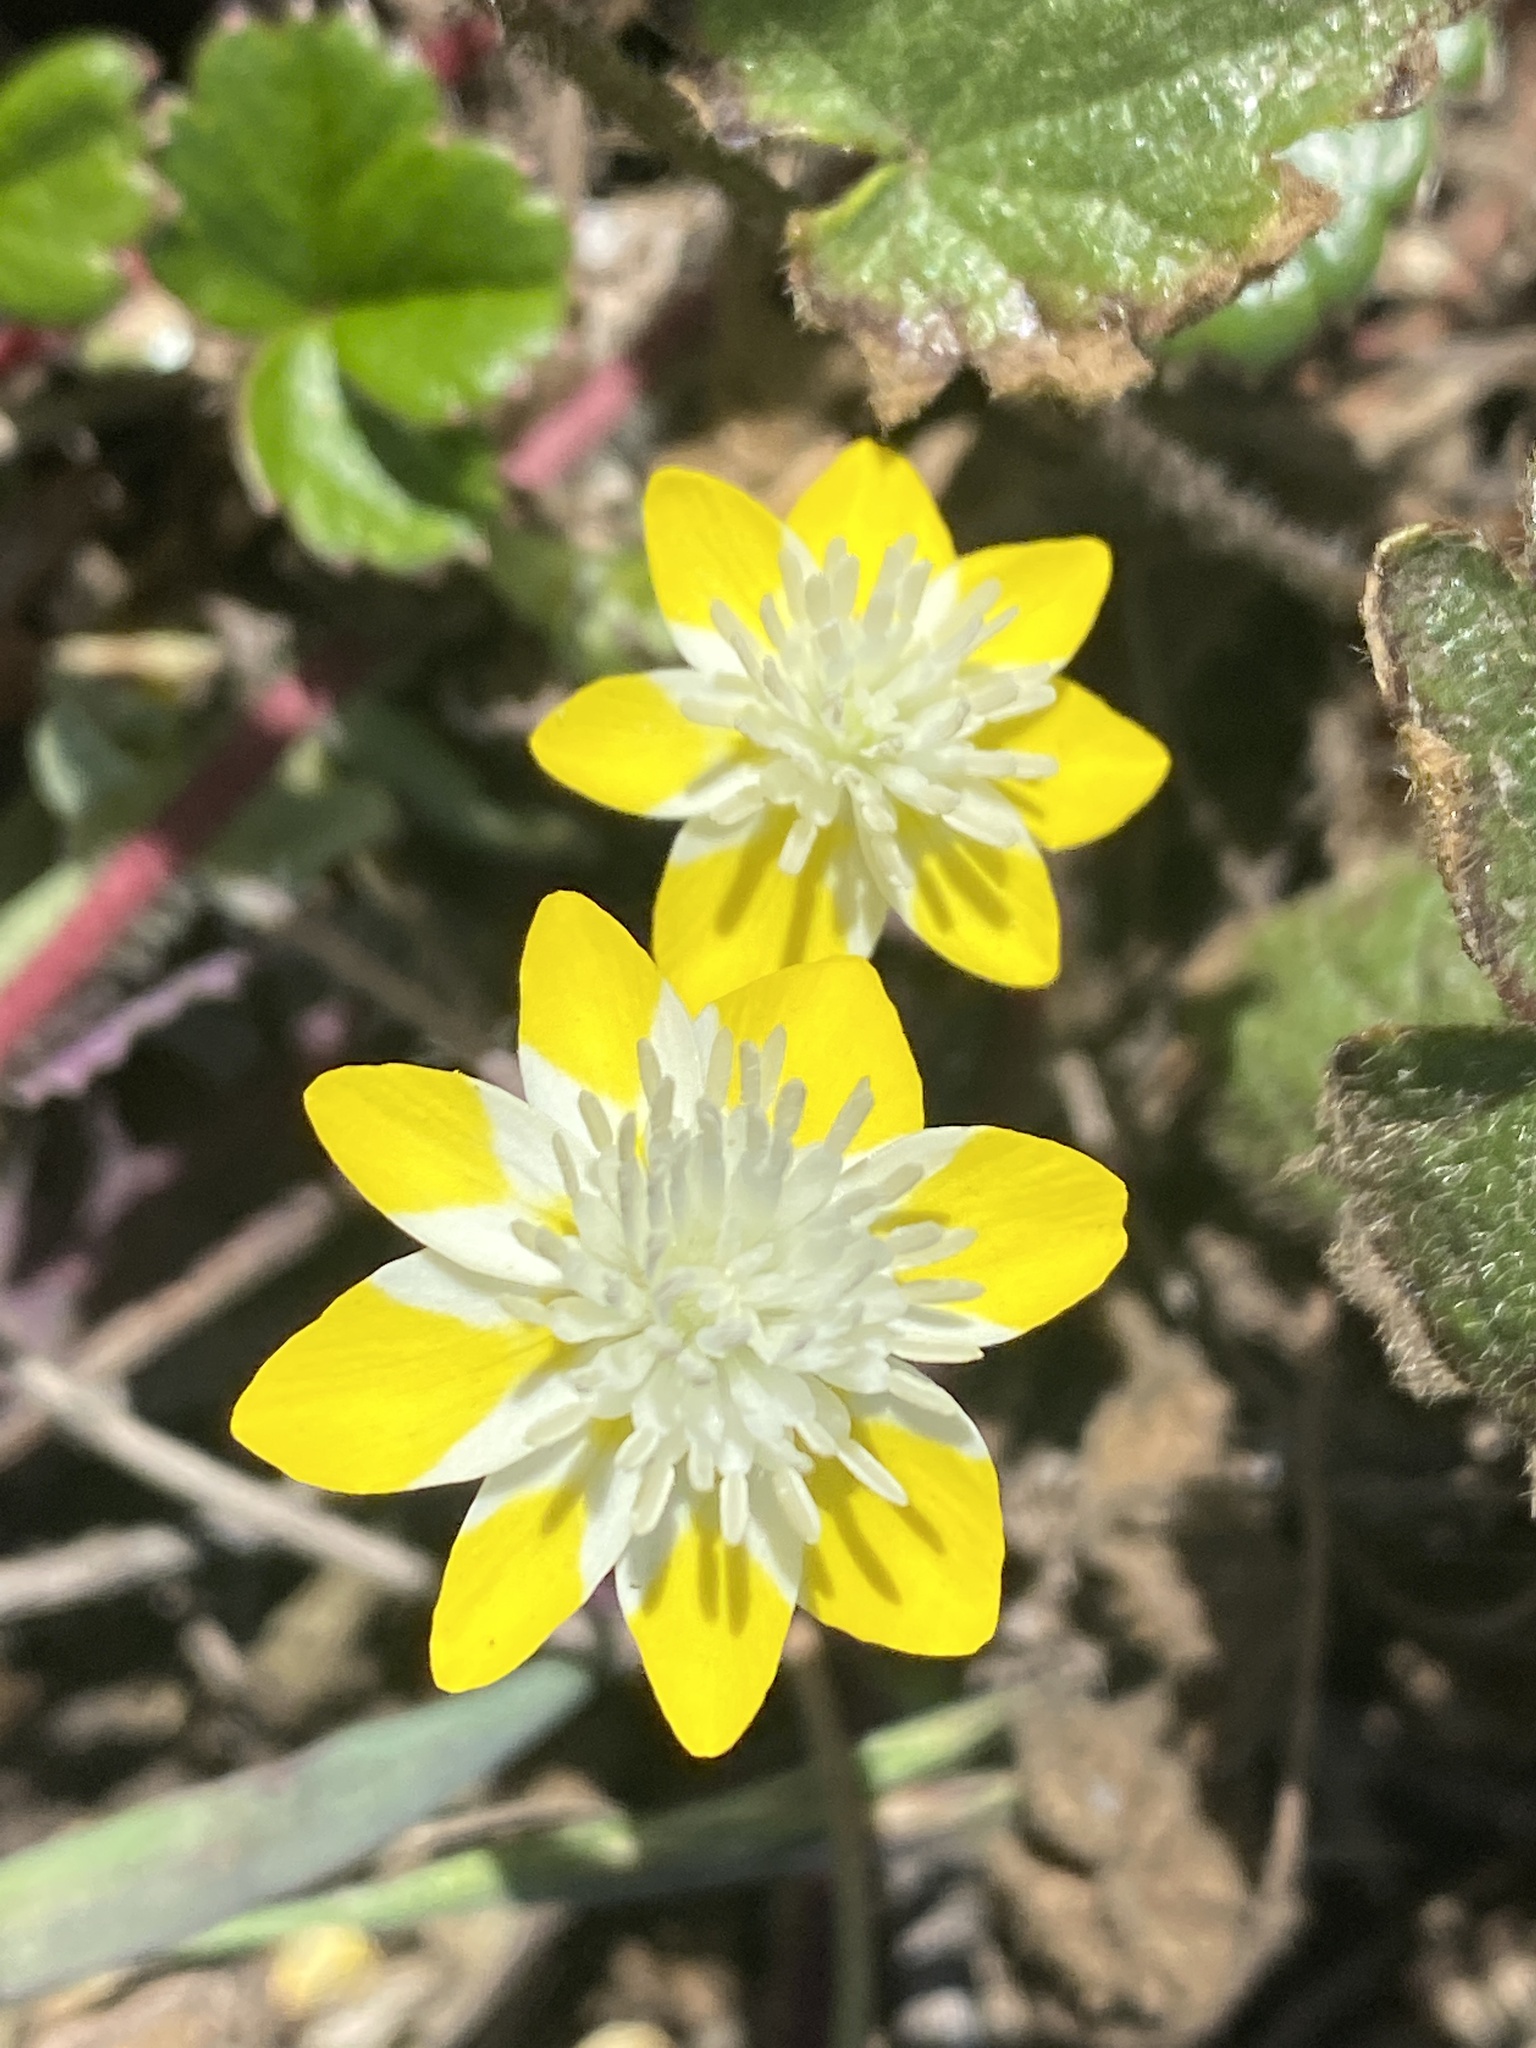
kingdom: Plantae
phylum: Tracheophyta
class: Magnoliopsida
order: Ranunculales
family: Papaveraceae
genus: Platystemon
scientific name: Platystemon californicus
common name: Cream-cups
